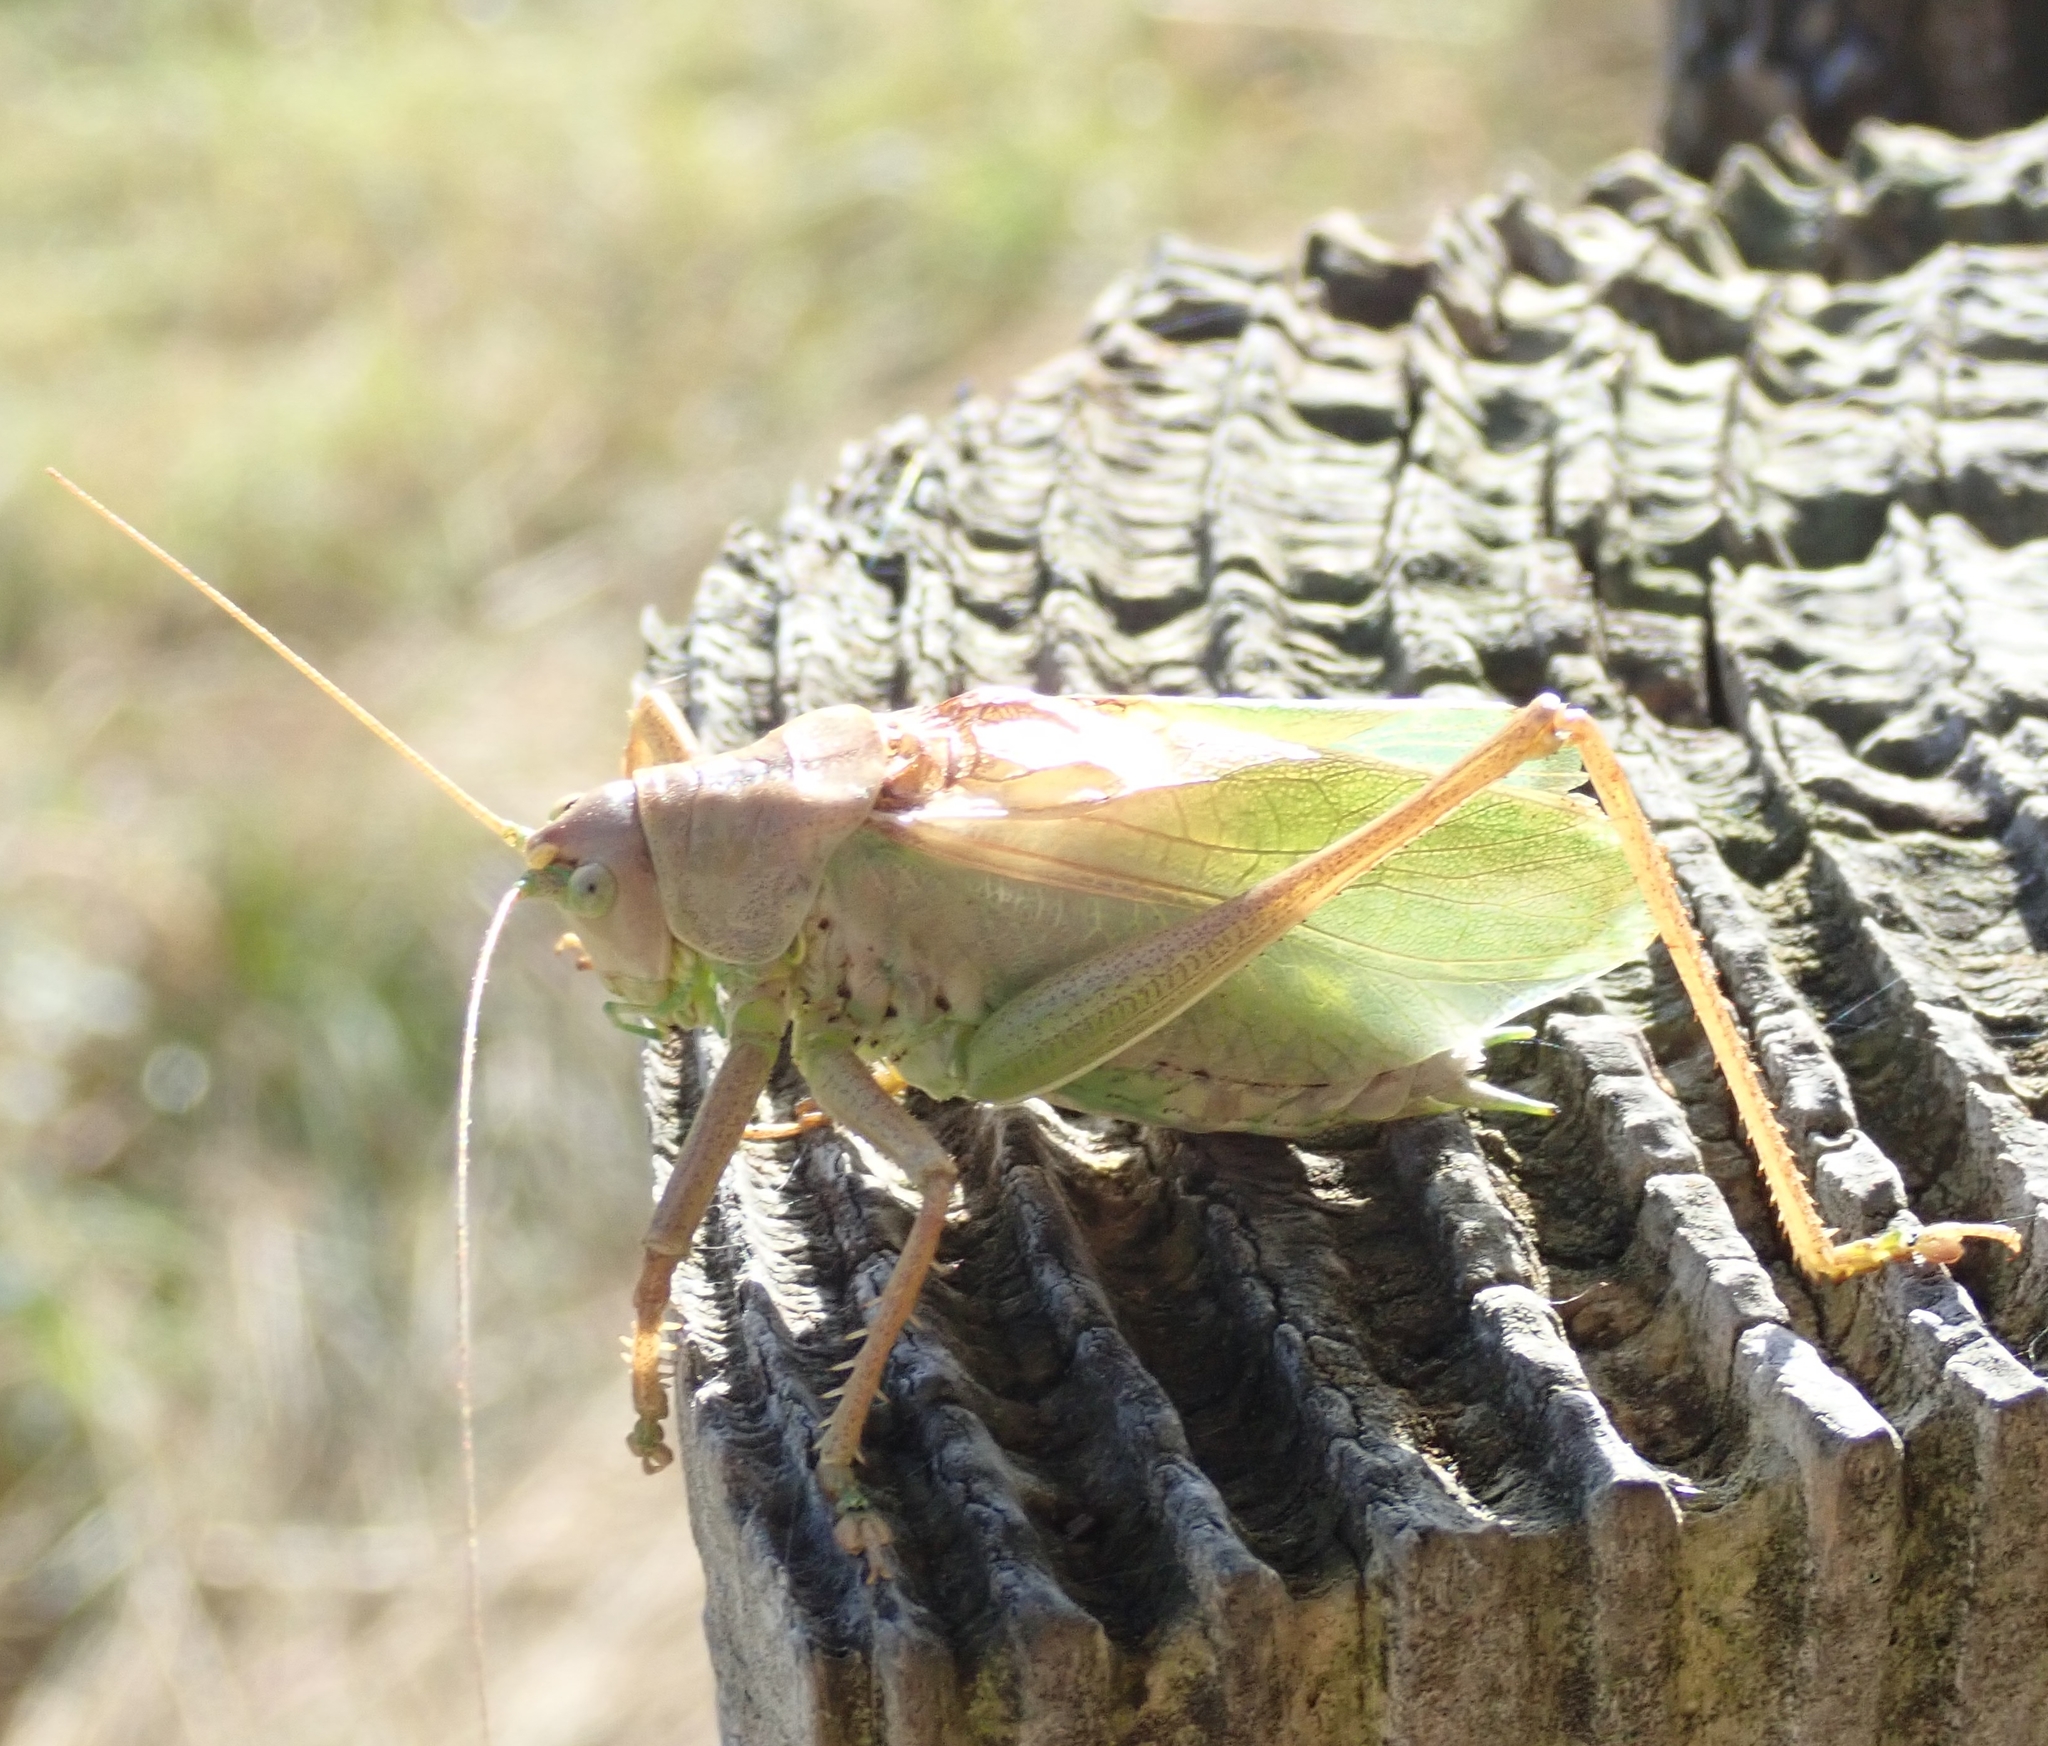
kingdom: Animalia
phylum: Arthropoda
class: Insecta
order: Orthoptera
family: Tettigoniidae
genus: Tettigonia
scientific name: Tettigonia cantans
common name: Upland green bush-cricket
